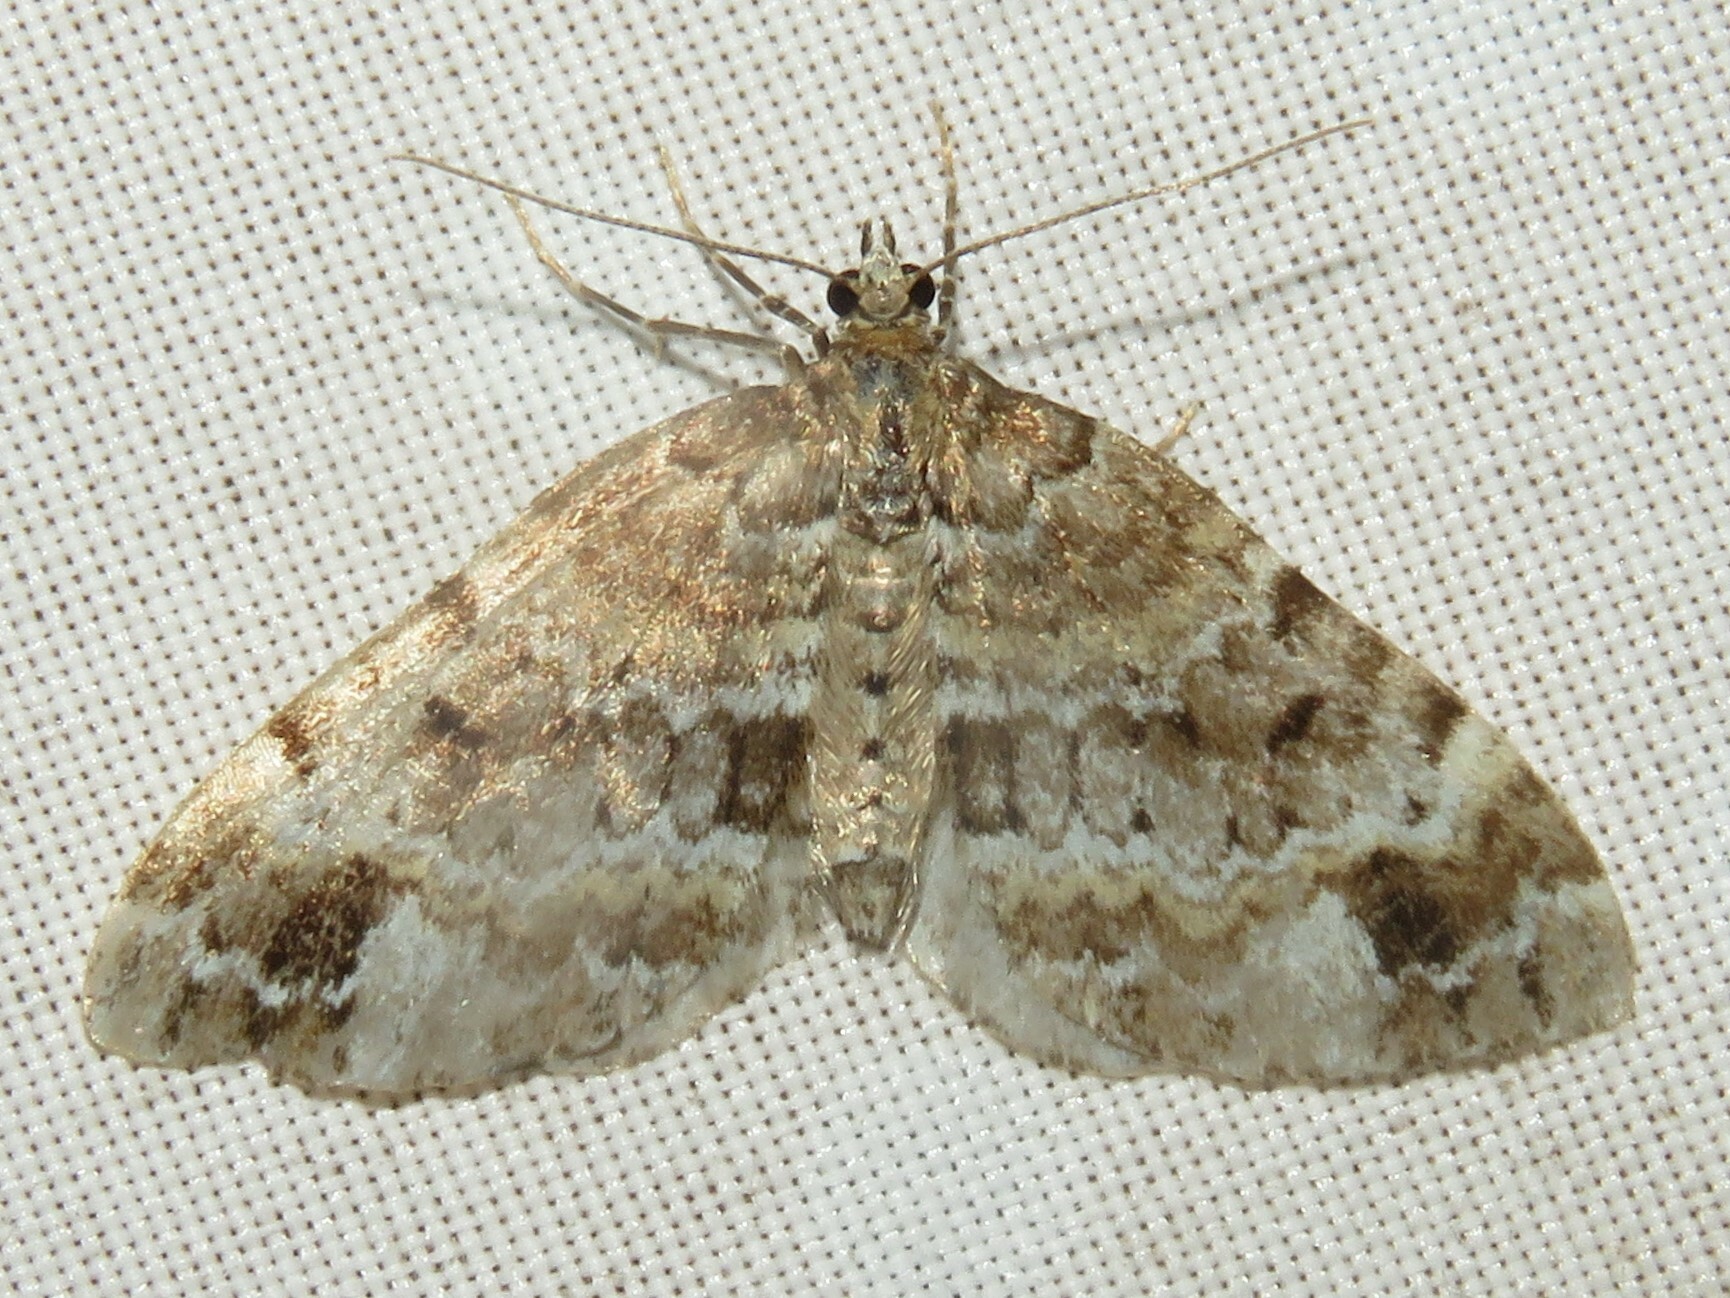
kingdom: Animalia
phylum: Arthropoda
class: Insecta
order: Lepidoptera
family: Geometridae
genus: Martania
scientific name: Martania
